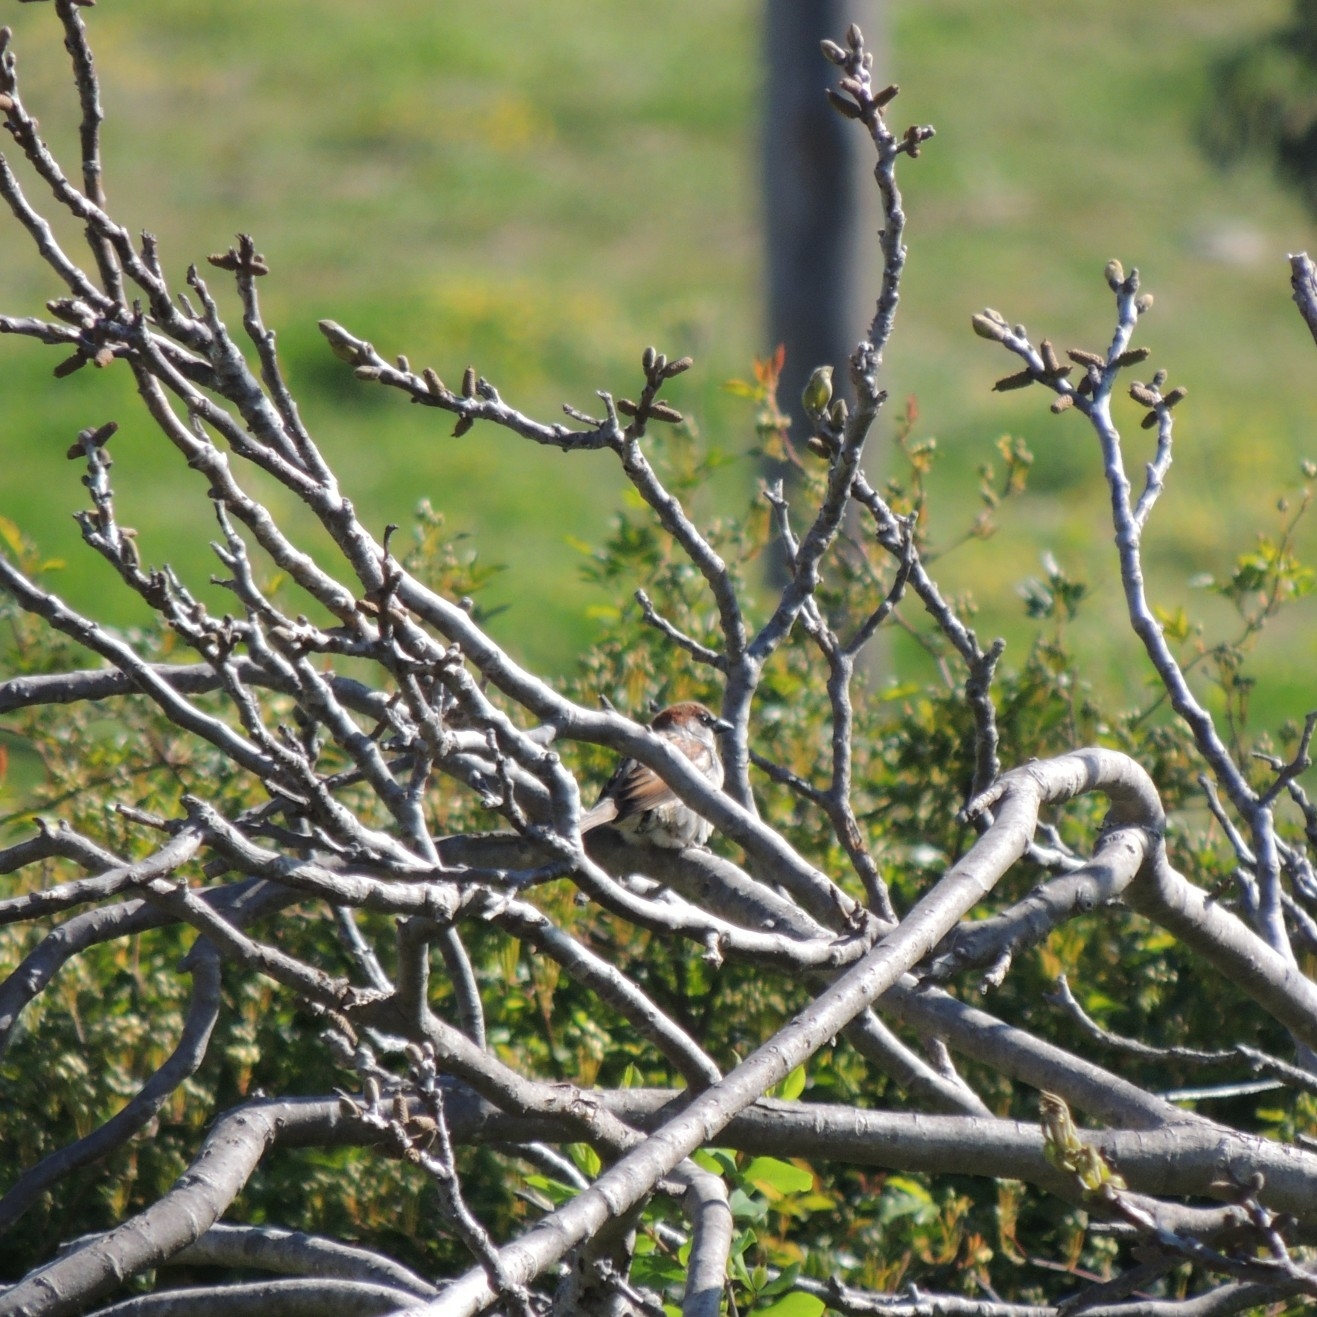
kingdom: Animalia
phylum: Chordata
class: Aves
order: Passeriformes
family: Passeridae
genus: Passer
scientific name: Passer domesticus
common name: House sparrow
